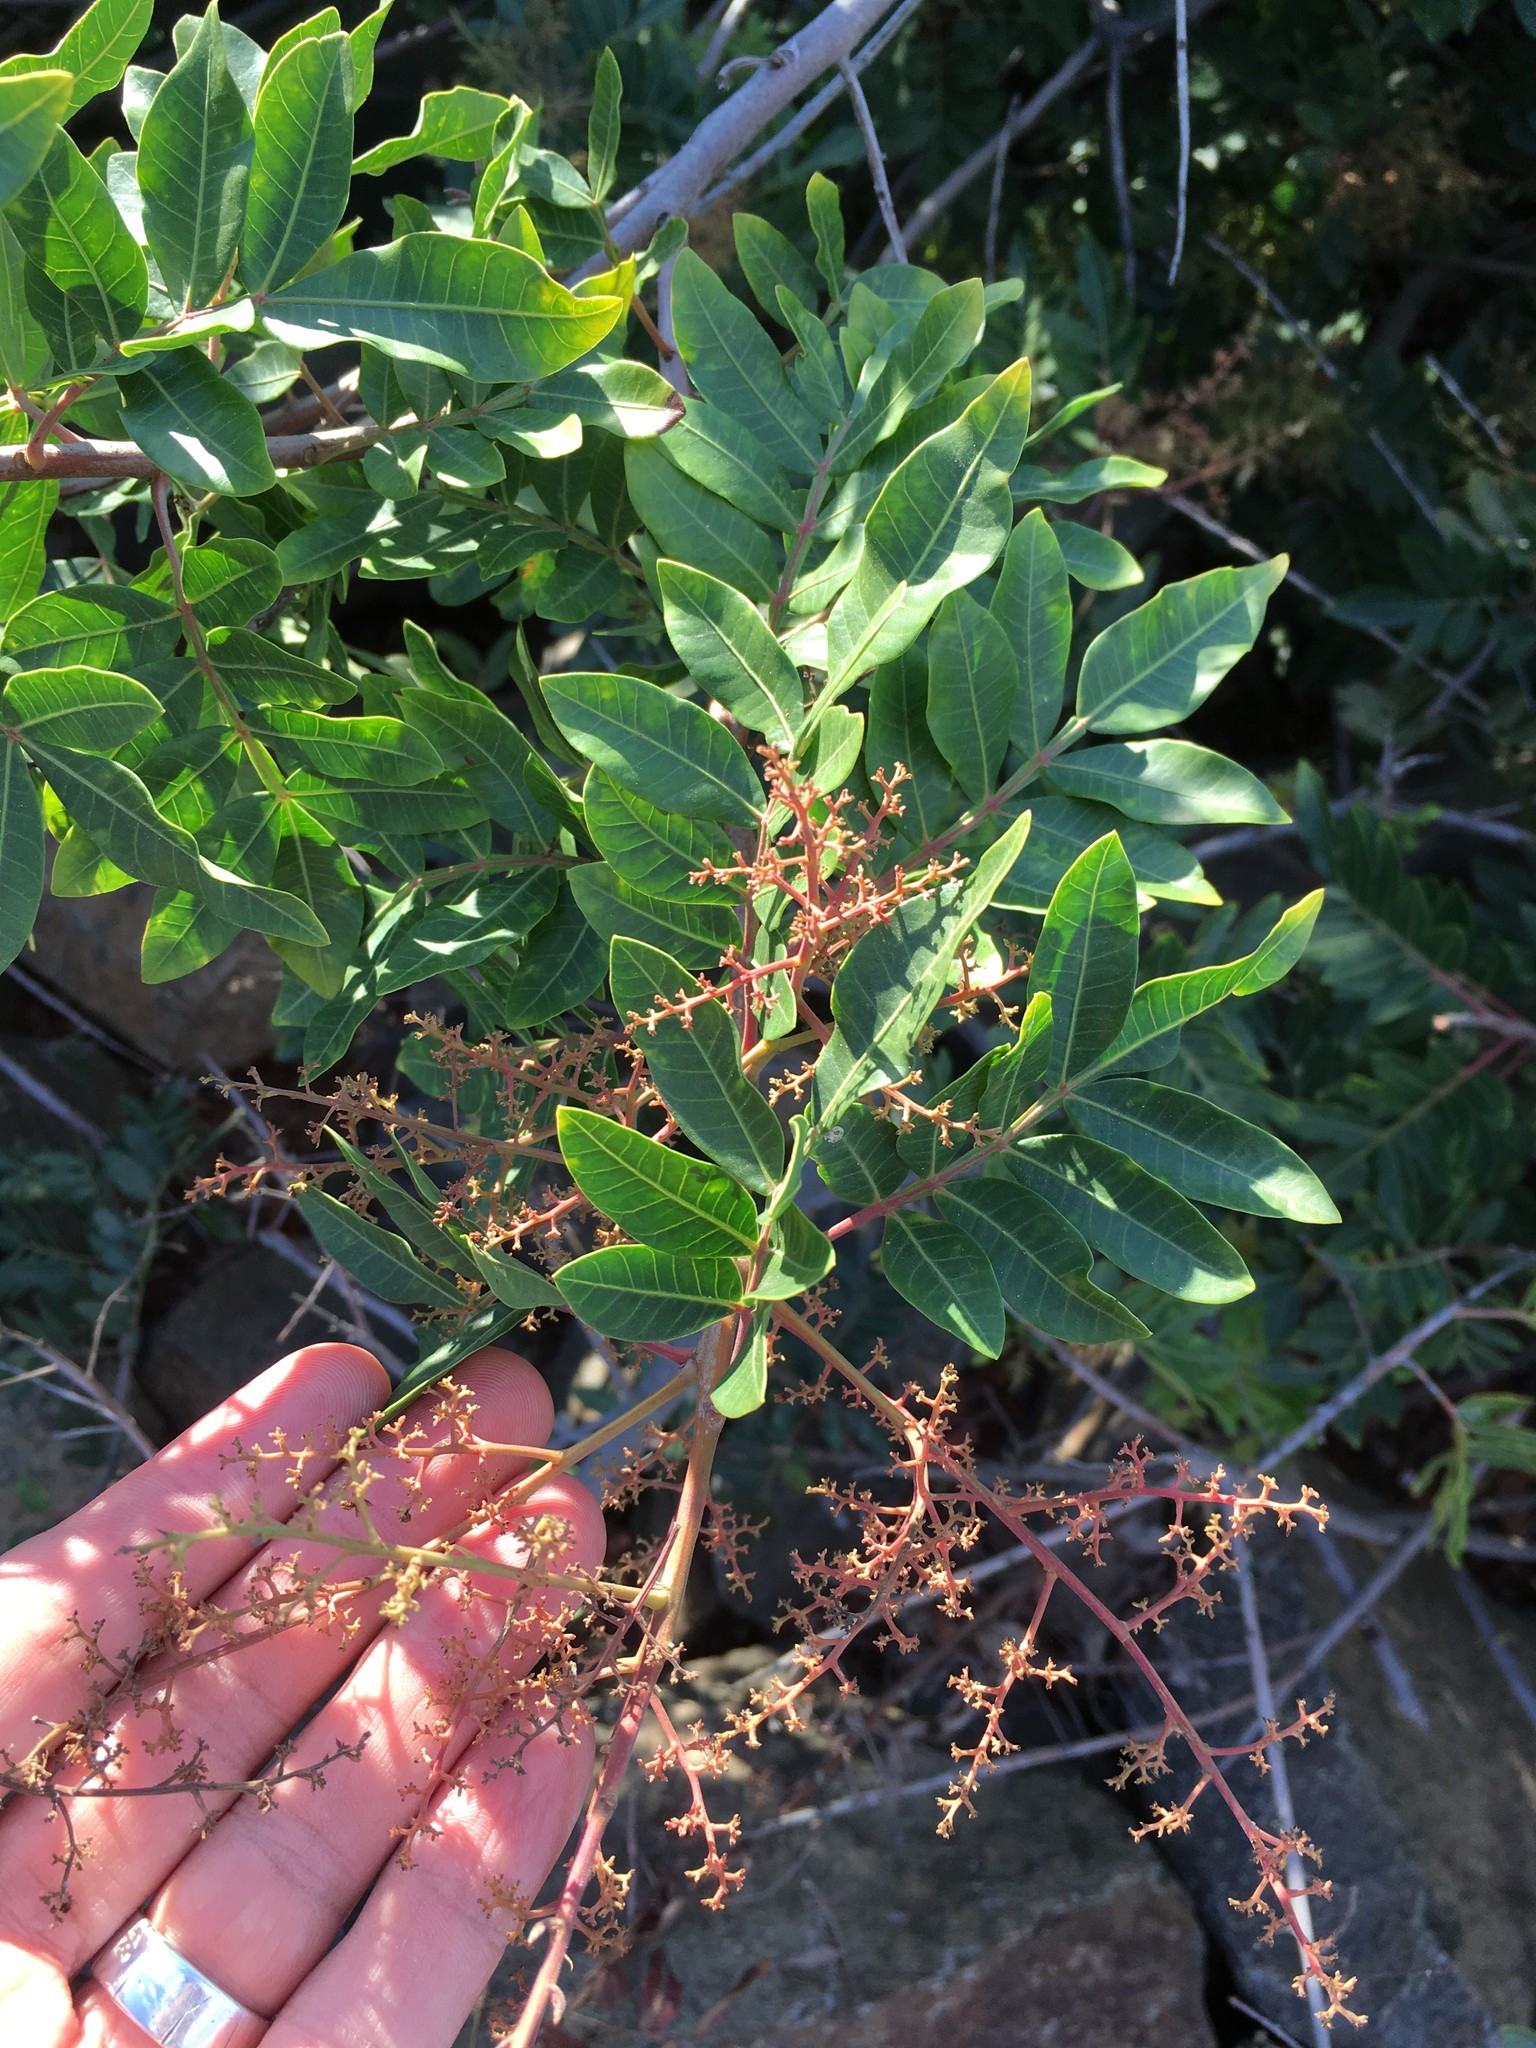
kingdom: Plantae
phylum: Tracheophyta
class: Magnoliopsida
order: Sapindales
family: Anacardiaceae
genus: Schinus
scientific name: Schinus terebinthifolia
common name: Brazilian peppertree
